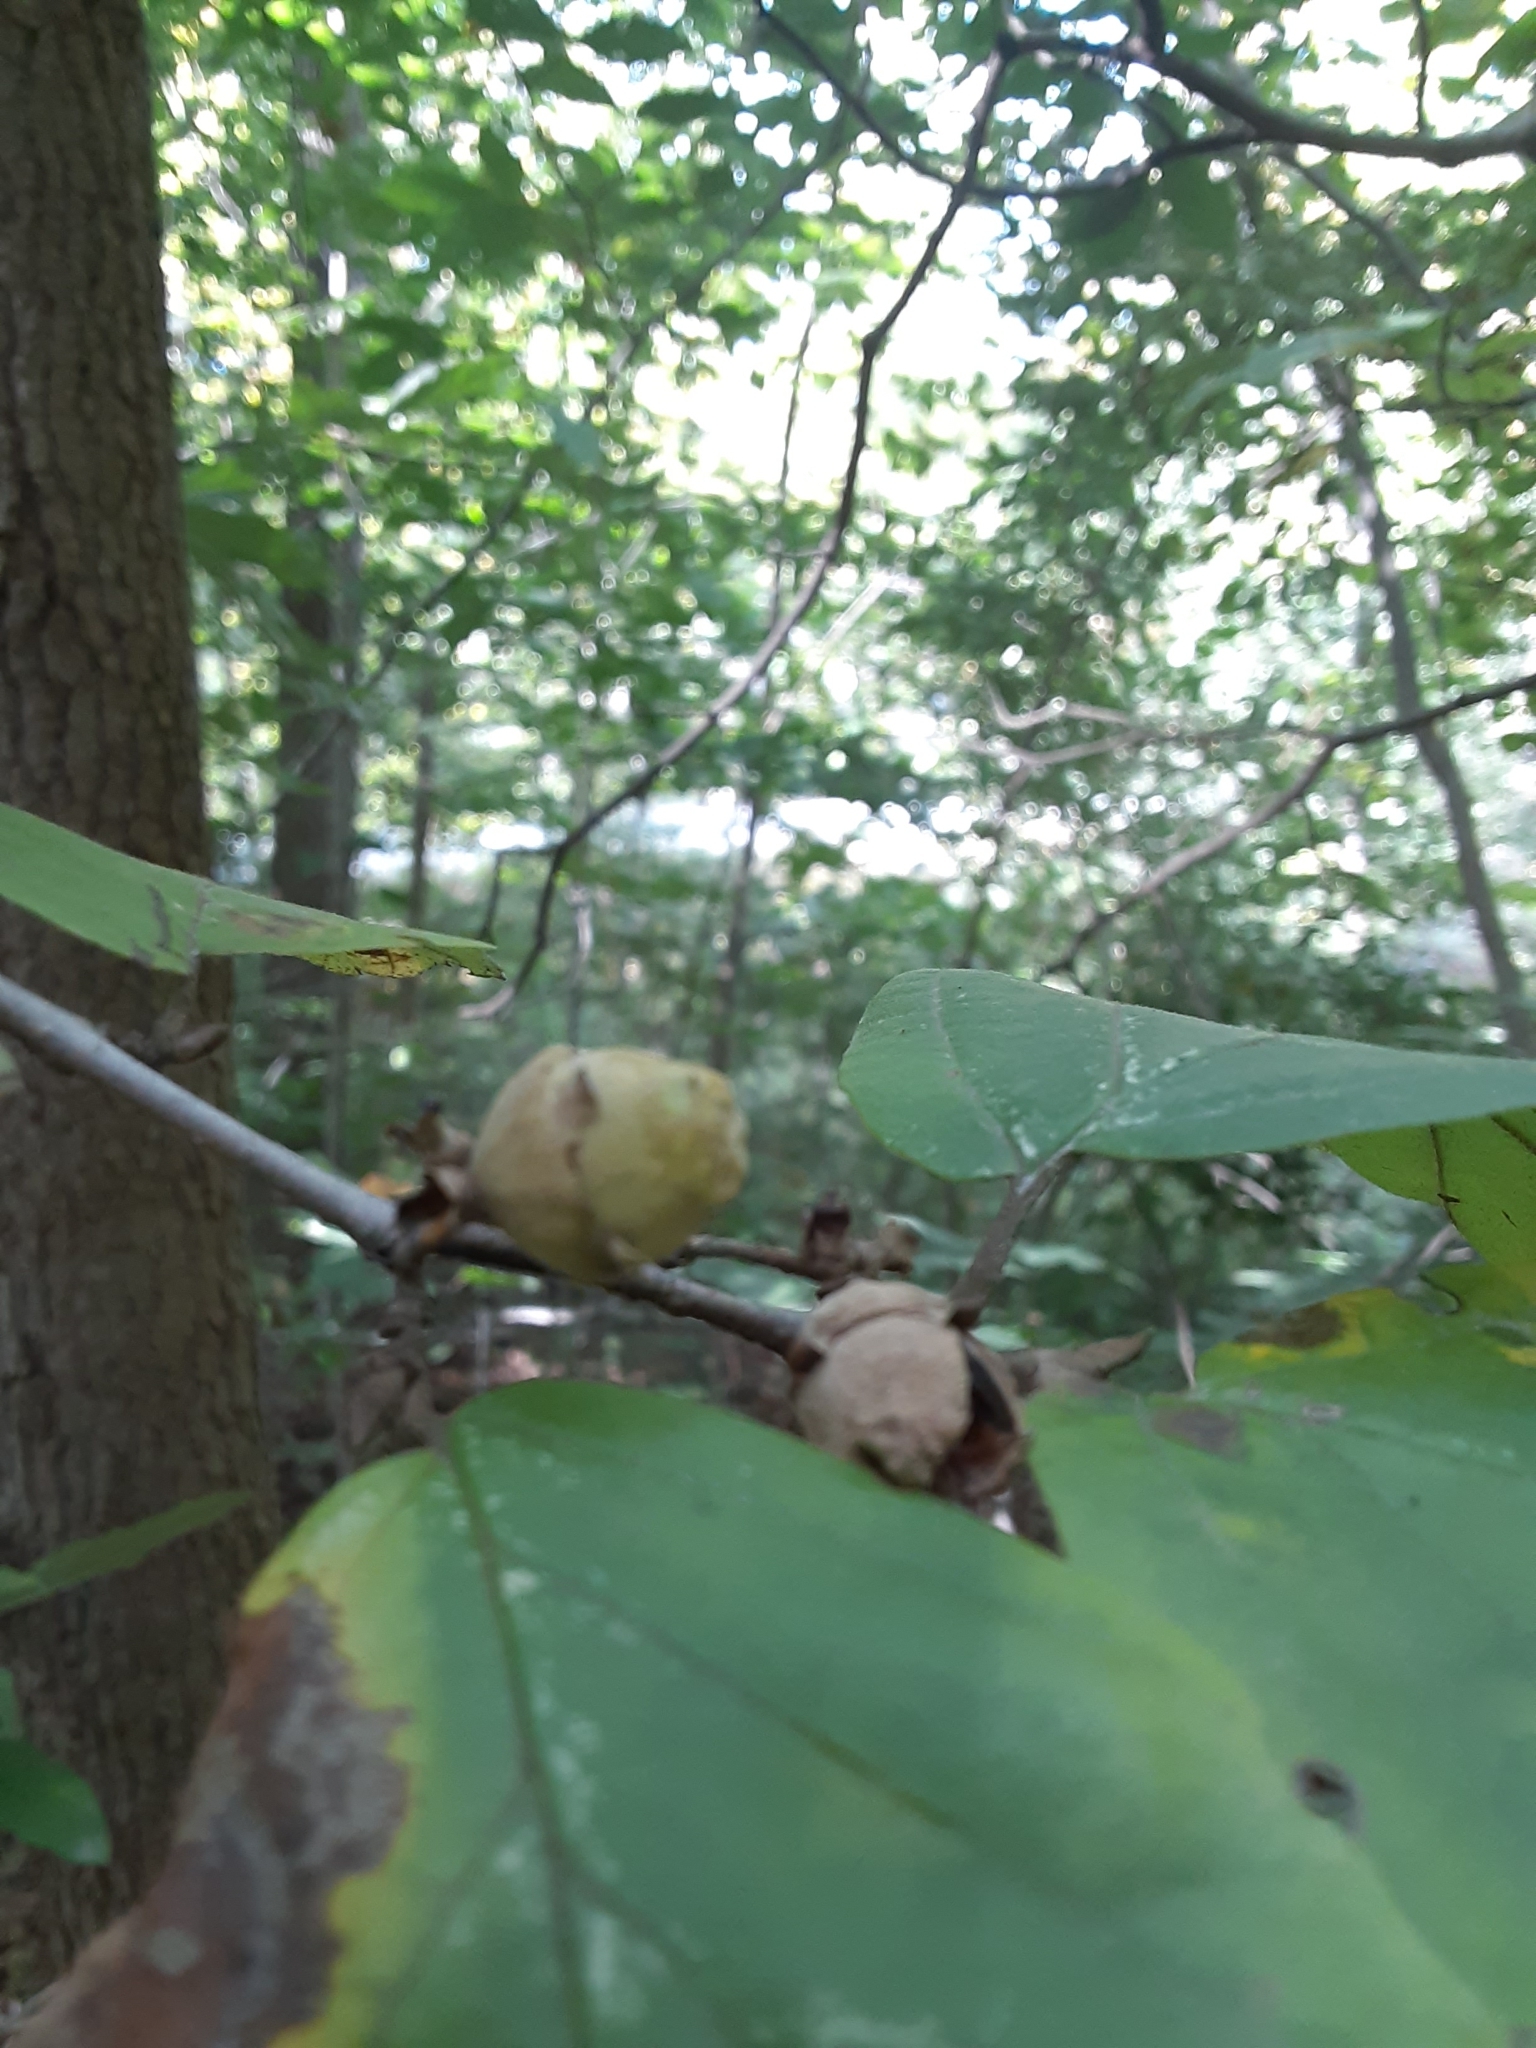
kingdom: Plantae
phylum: Tracheophyta
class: Magnoliopsida
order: Saxifragales
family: Hamamelidaceae
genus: Hamamelis
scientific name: Hamamelis virginiana
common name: Witch-hazel
